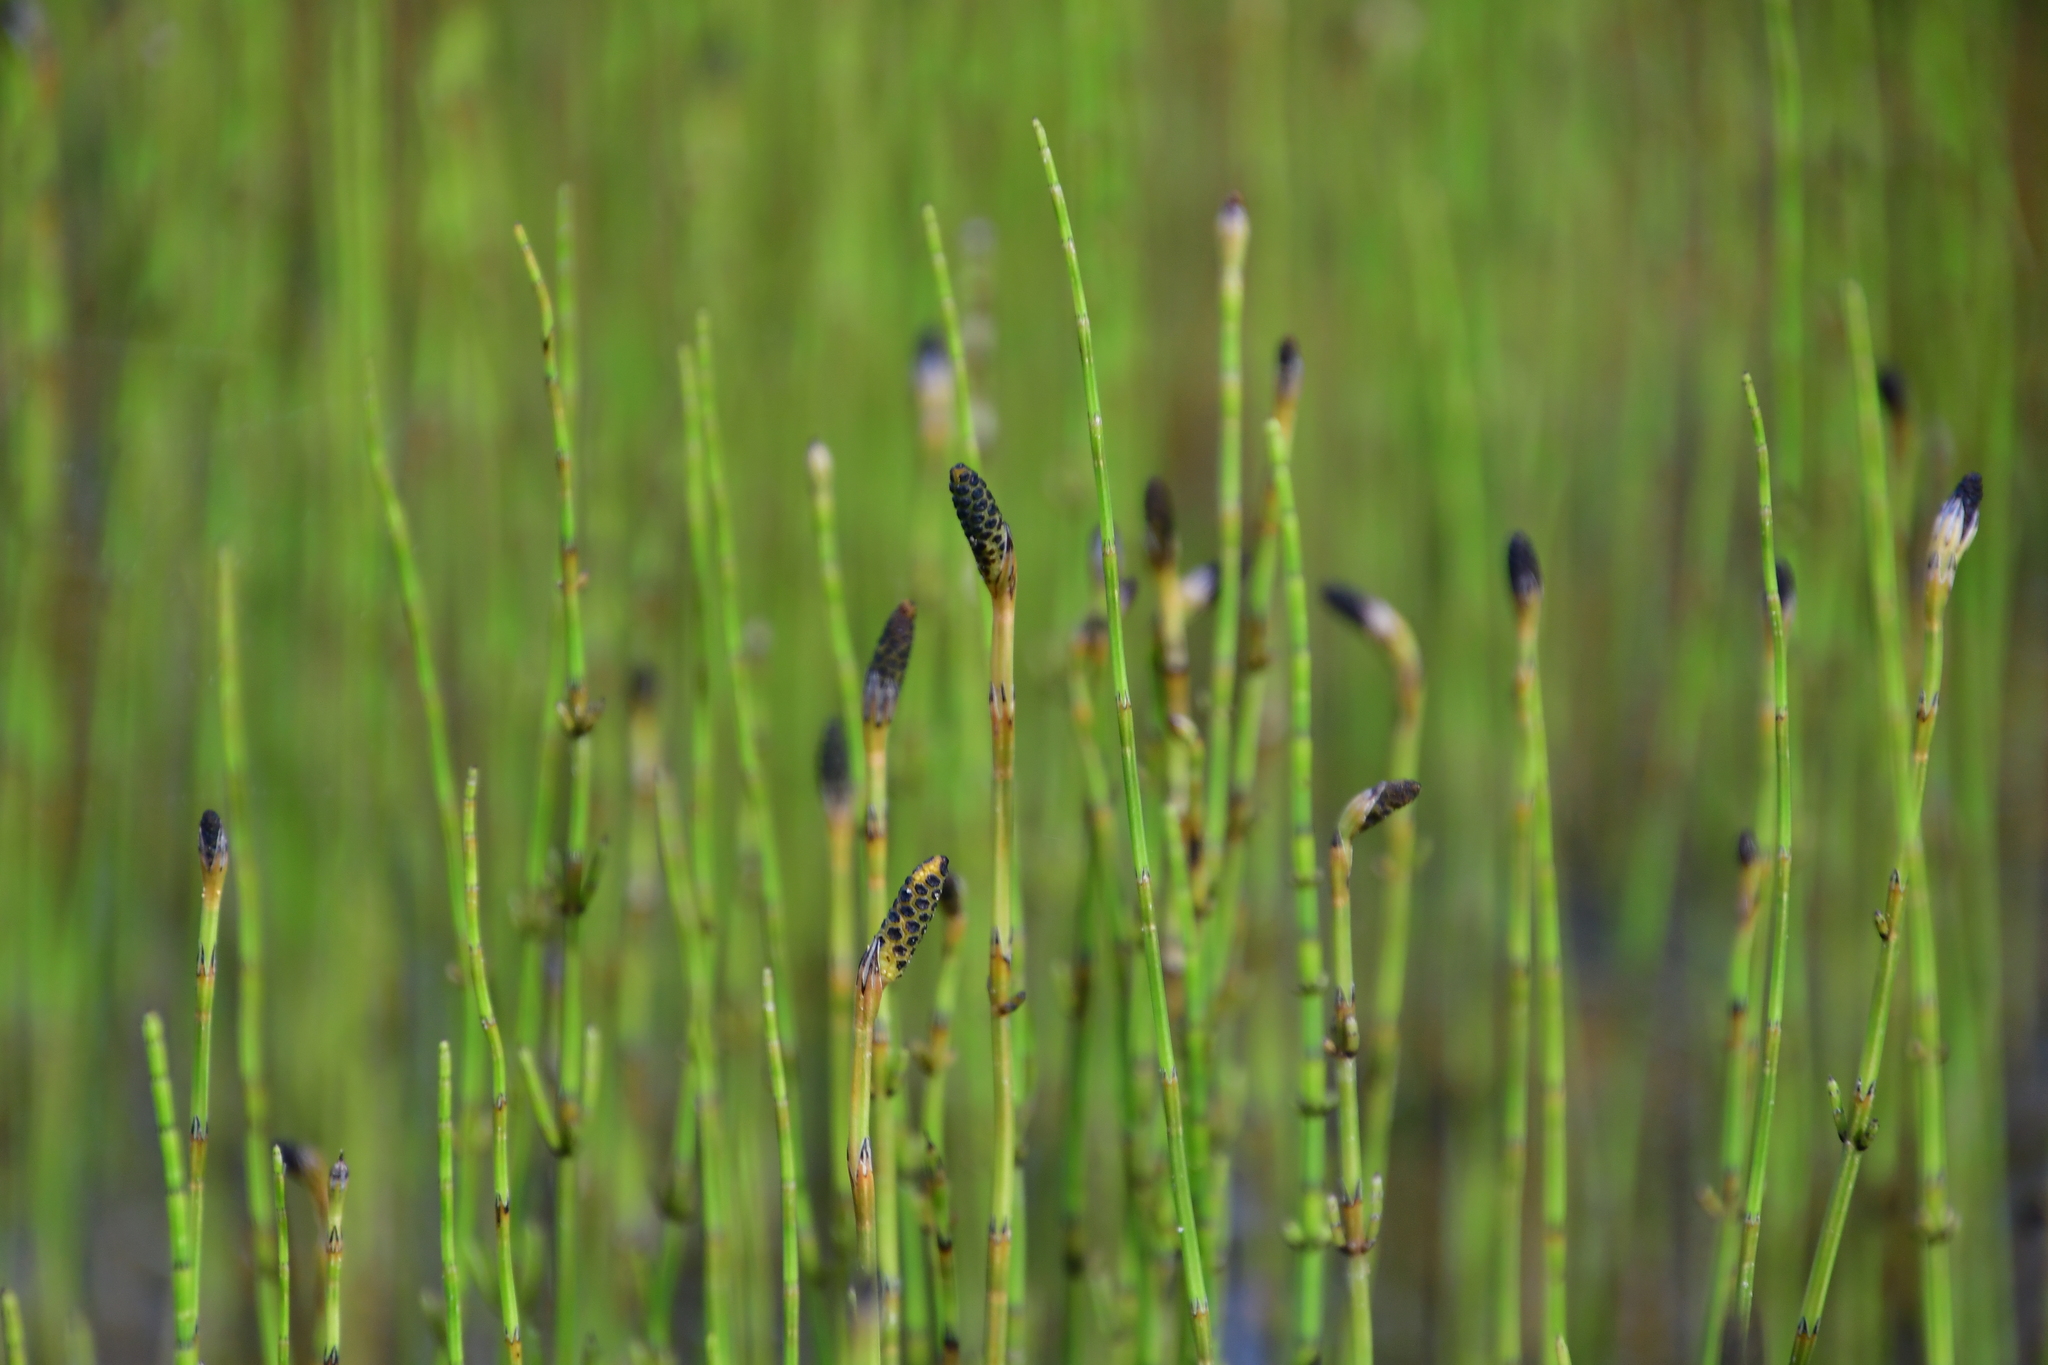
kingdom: Plantae
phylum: Tracheophyta
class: Polypodiopsida
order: Equisetales
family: Equisetaceae
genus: Equisetum
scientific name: Equisetum palustre
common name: Marsh horsetail
